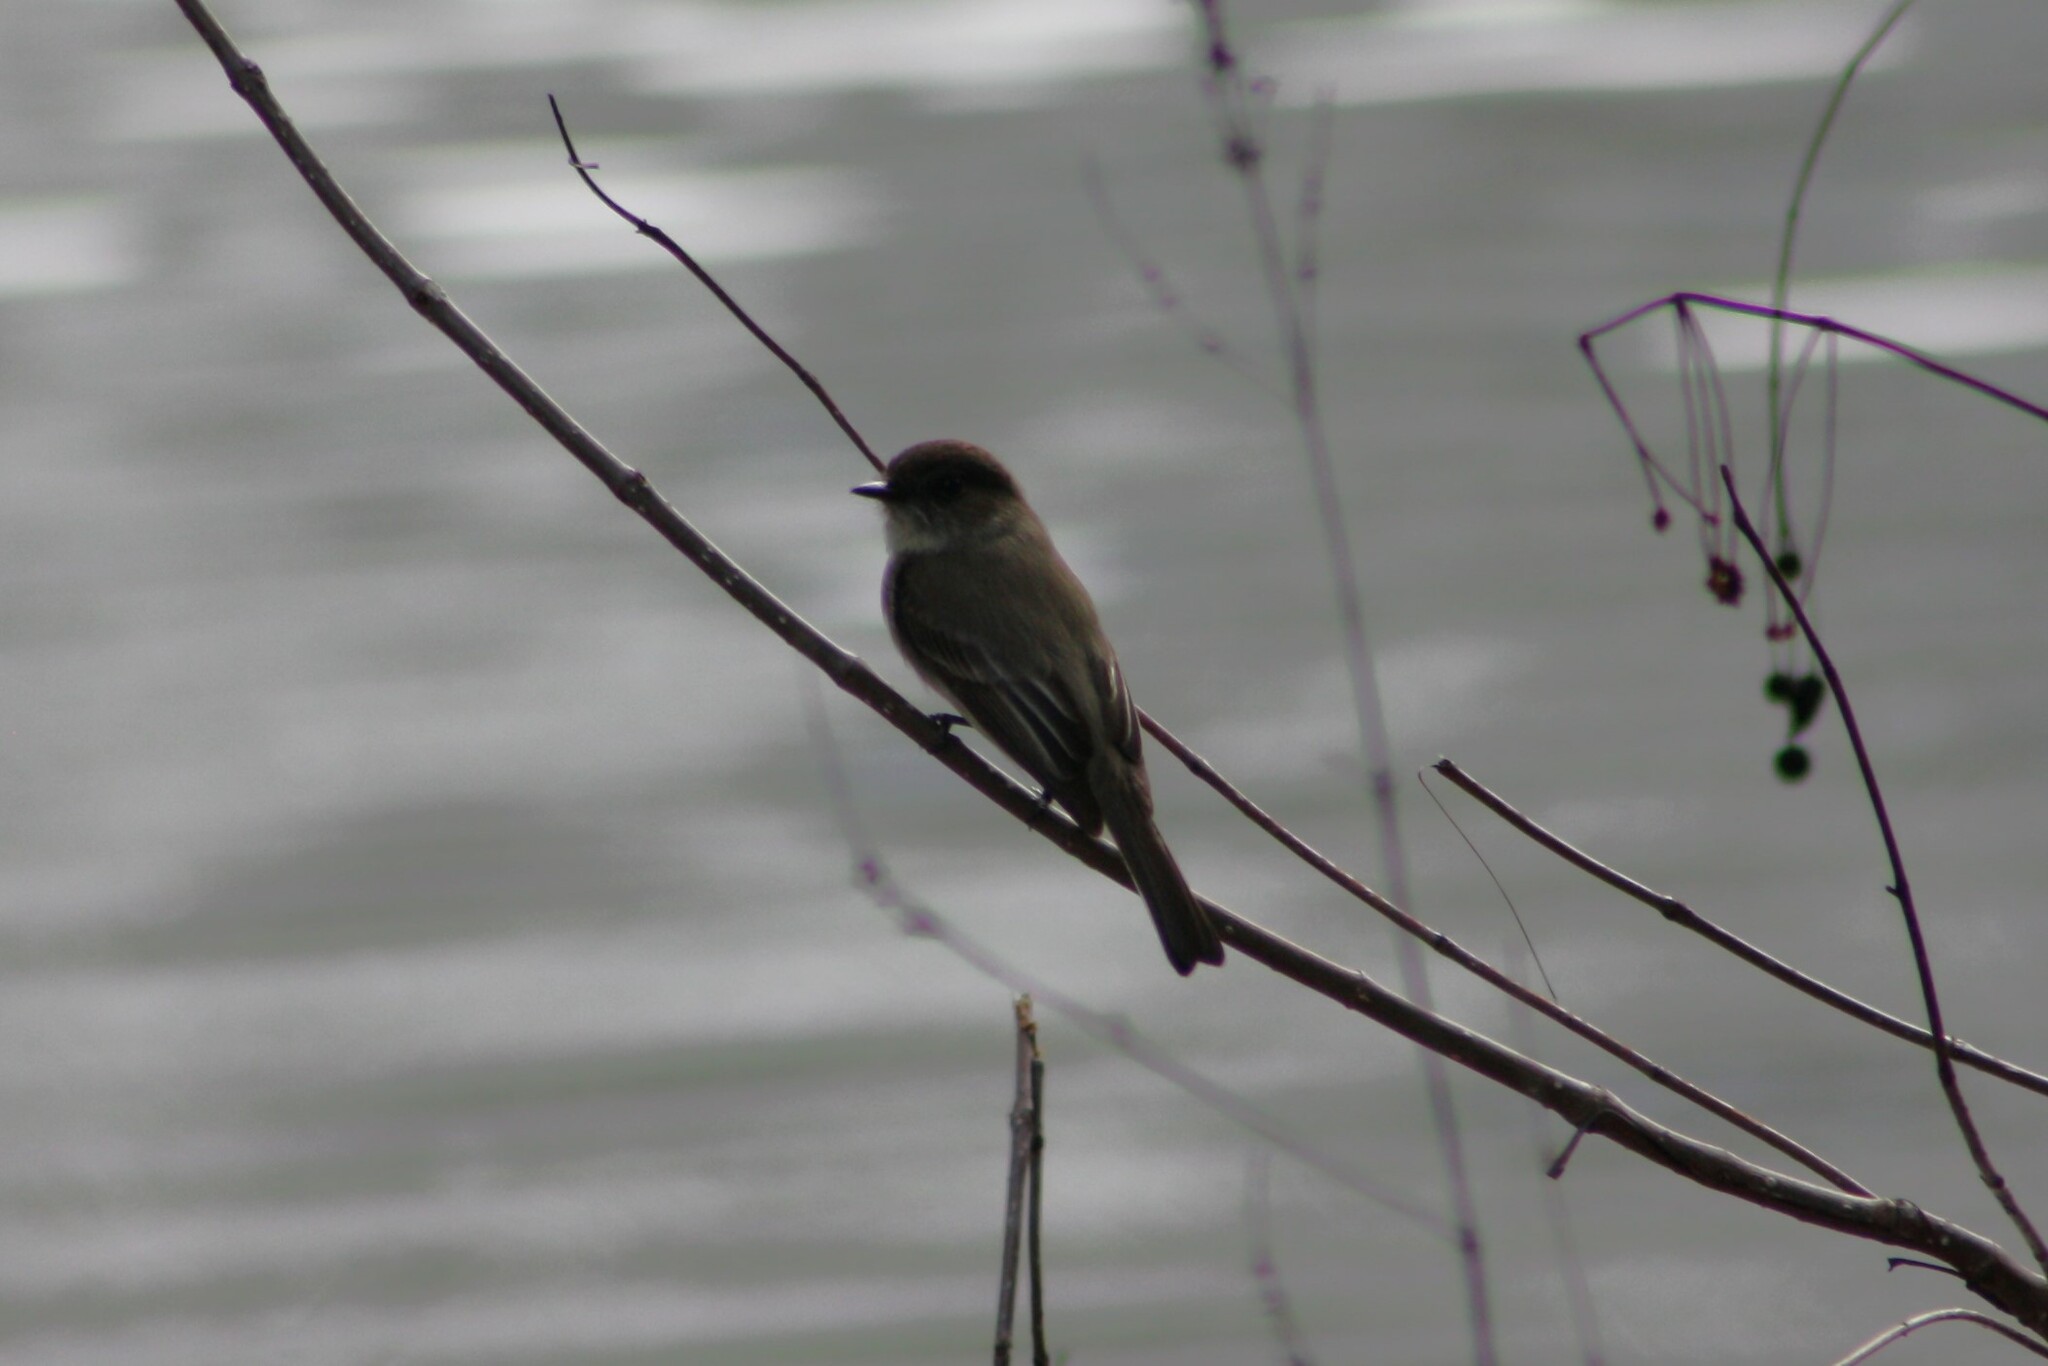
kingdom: Animalia
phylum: Chordata
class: Aves
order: Passeriformes
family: Tyrannidae
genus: Sayornis
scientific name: Sayornis phoebe
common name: Eastern phoebe
